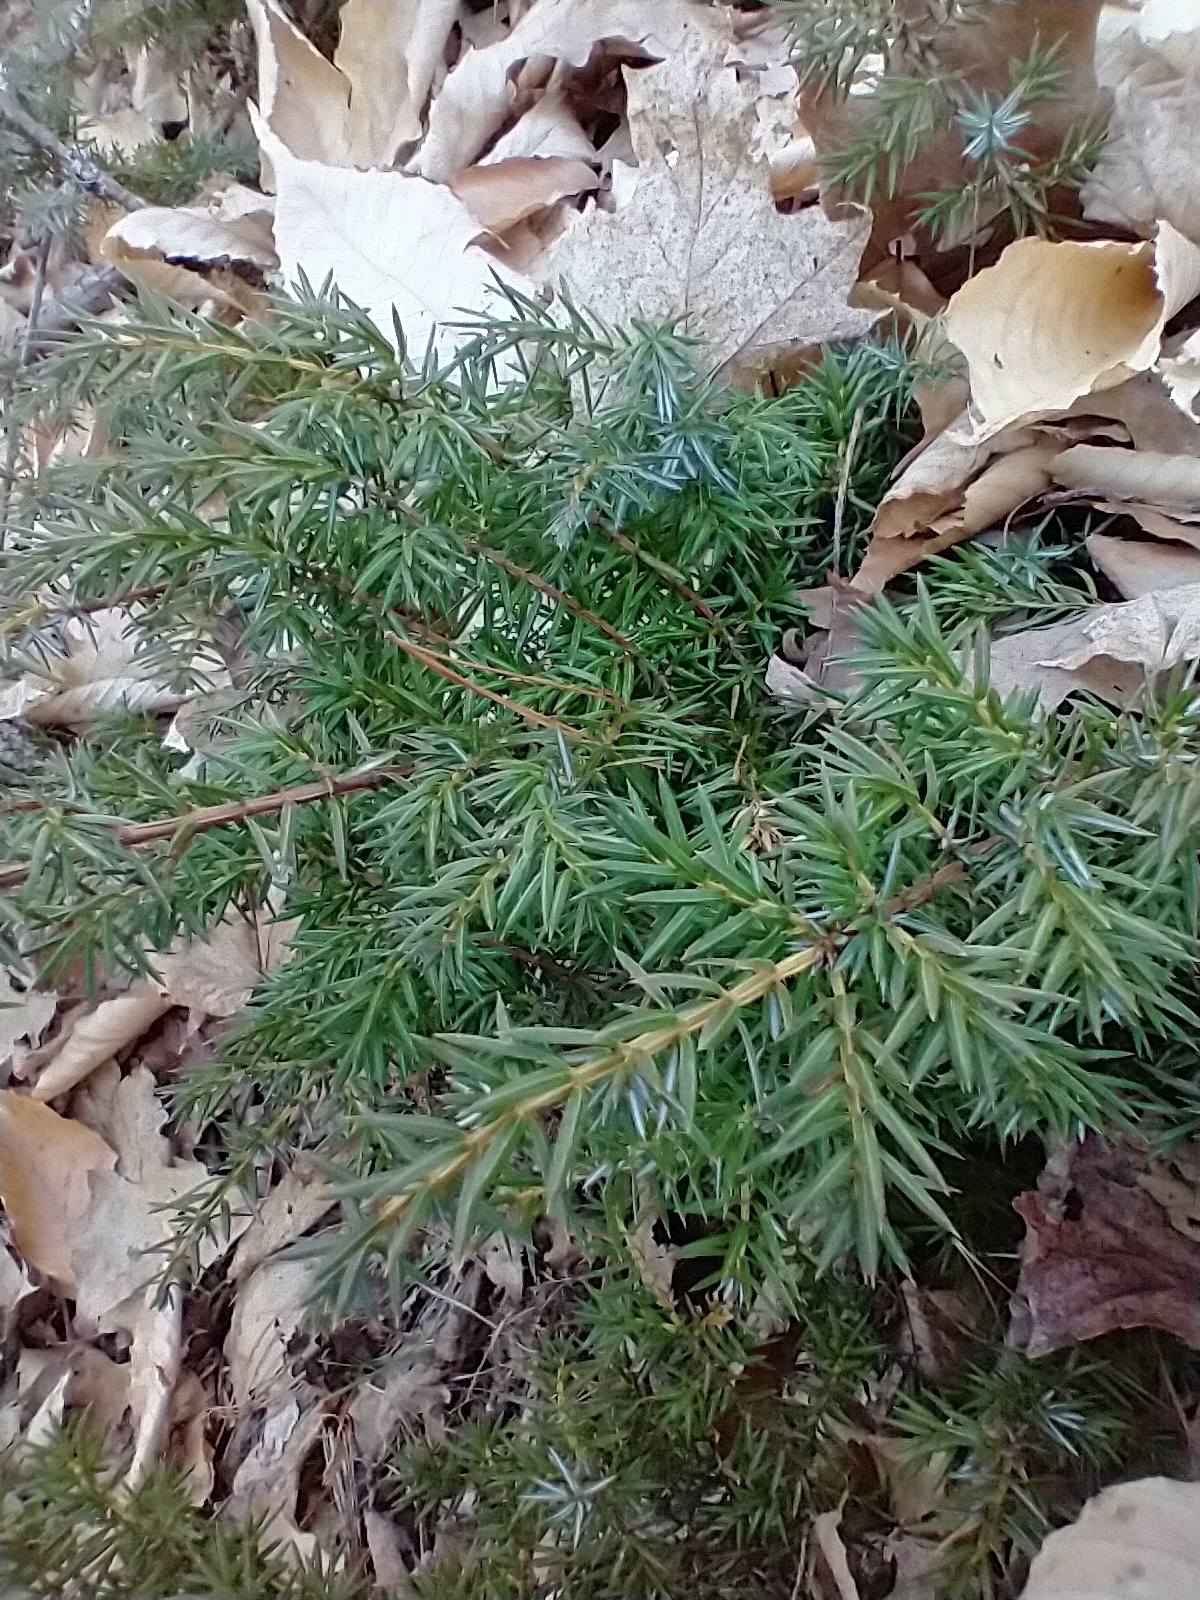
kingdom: Plantae
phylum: Tracheophyta
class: Pinopsida
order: Pinales
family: Cupressaceae
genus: Juniperus
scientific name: Juniperus communis
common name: Common juniper
